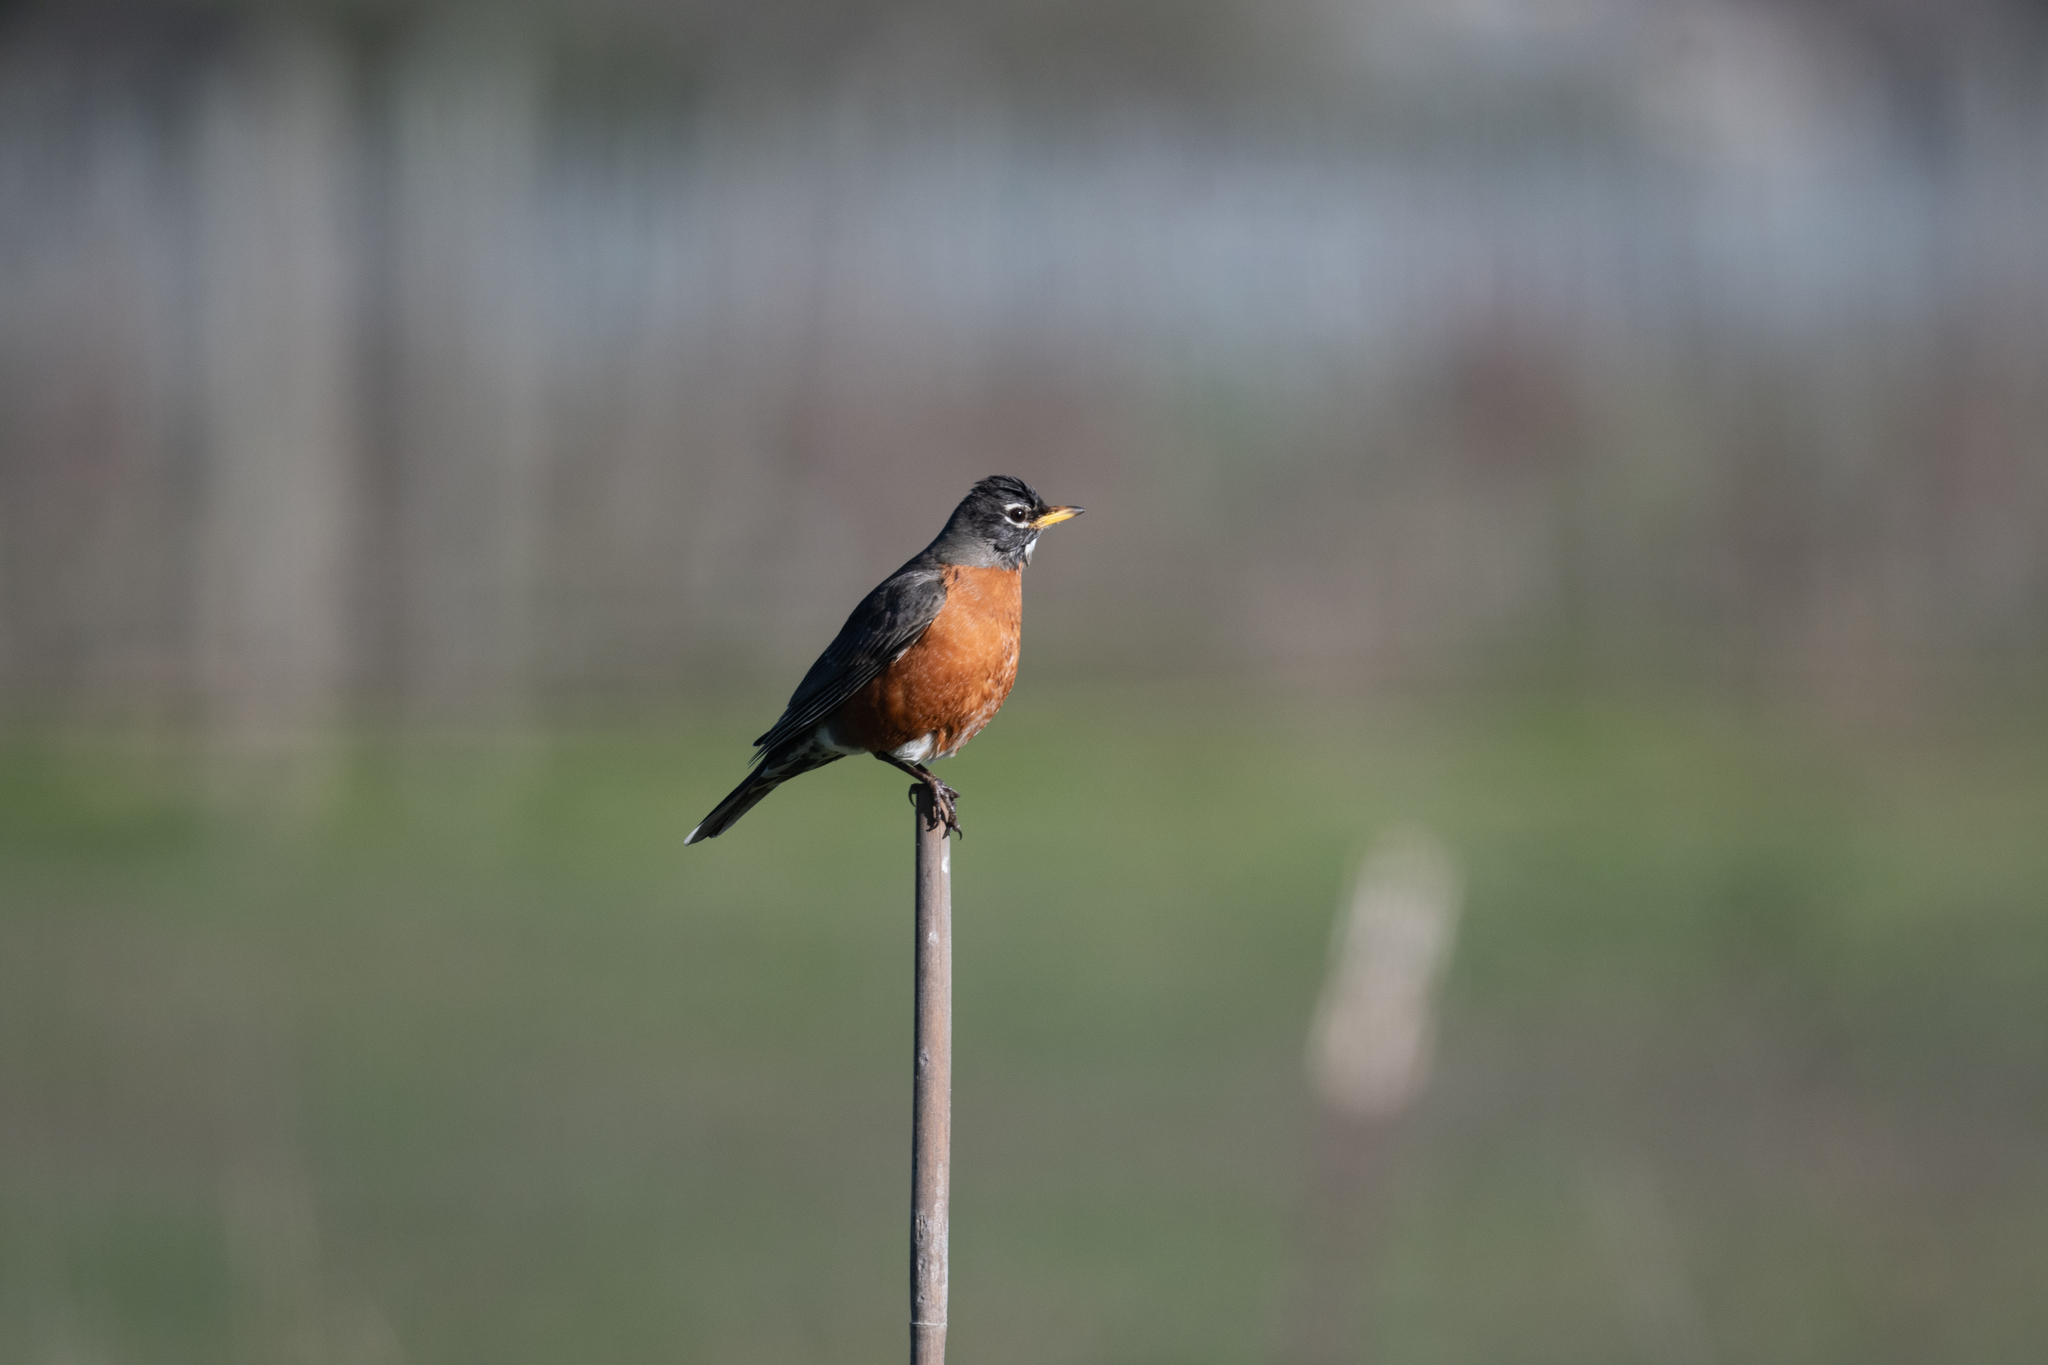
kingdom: Animalia
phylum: Chordata
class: Aves
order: Passeriformes
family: Turdidae
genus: Turdus
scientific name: Turdus migratorius
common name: American robin
